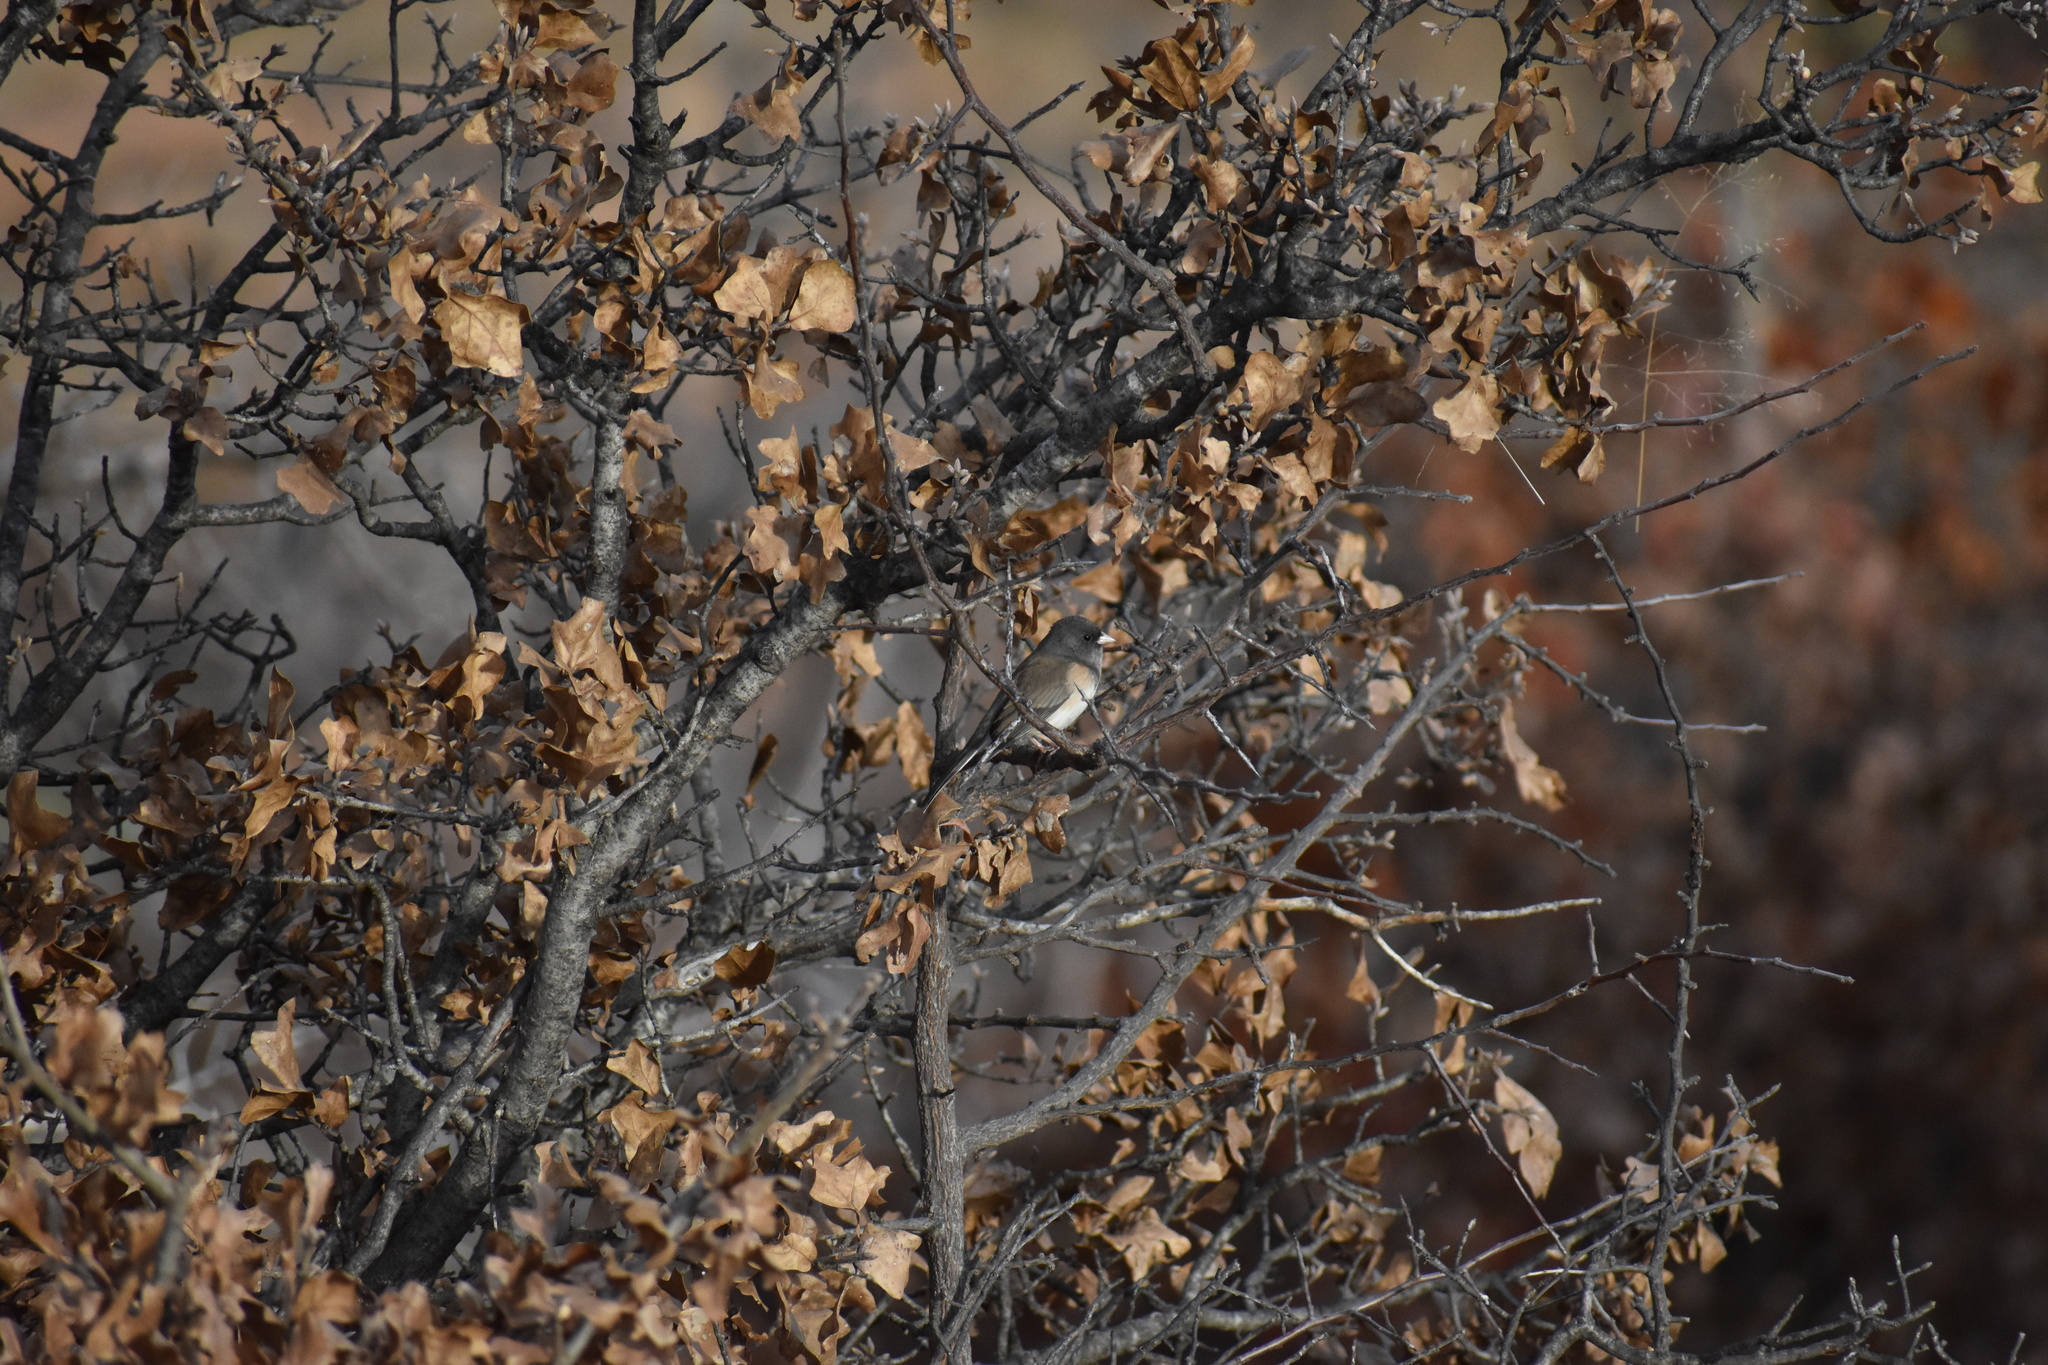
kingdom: Animalia
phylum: Chordata
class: Aves
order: Passeriformes
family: Passerellidae
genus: Junco
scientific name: Junco hyemalis
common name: Dark-eyed junco
